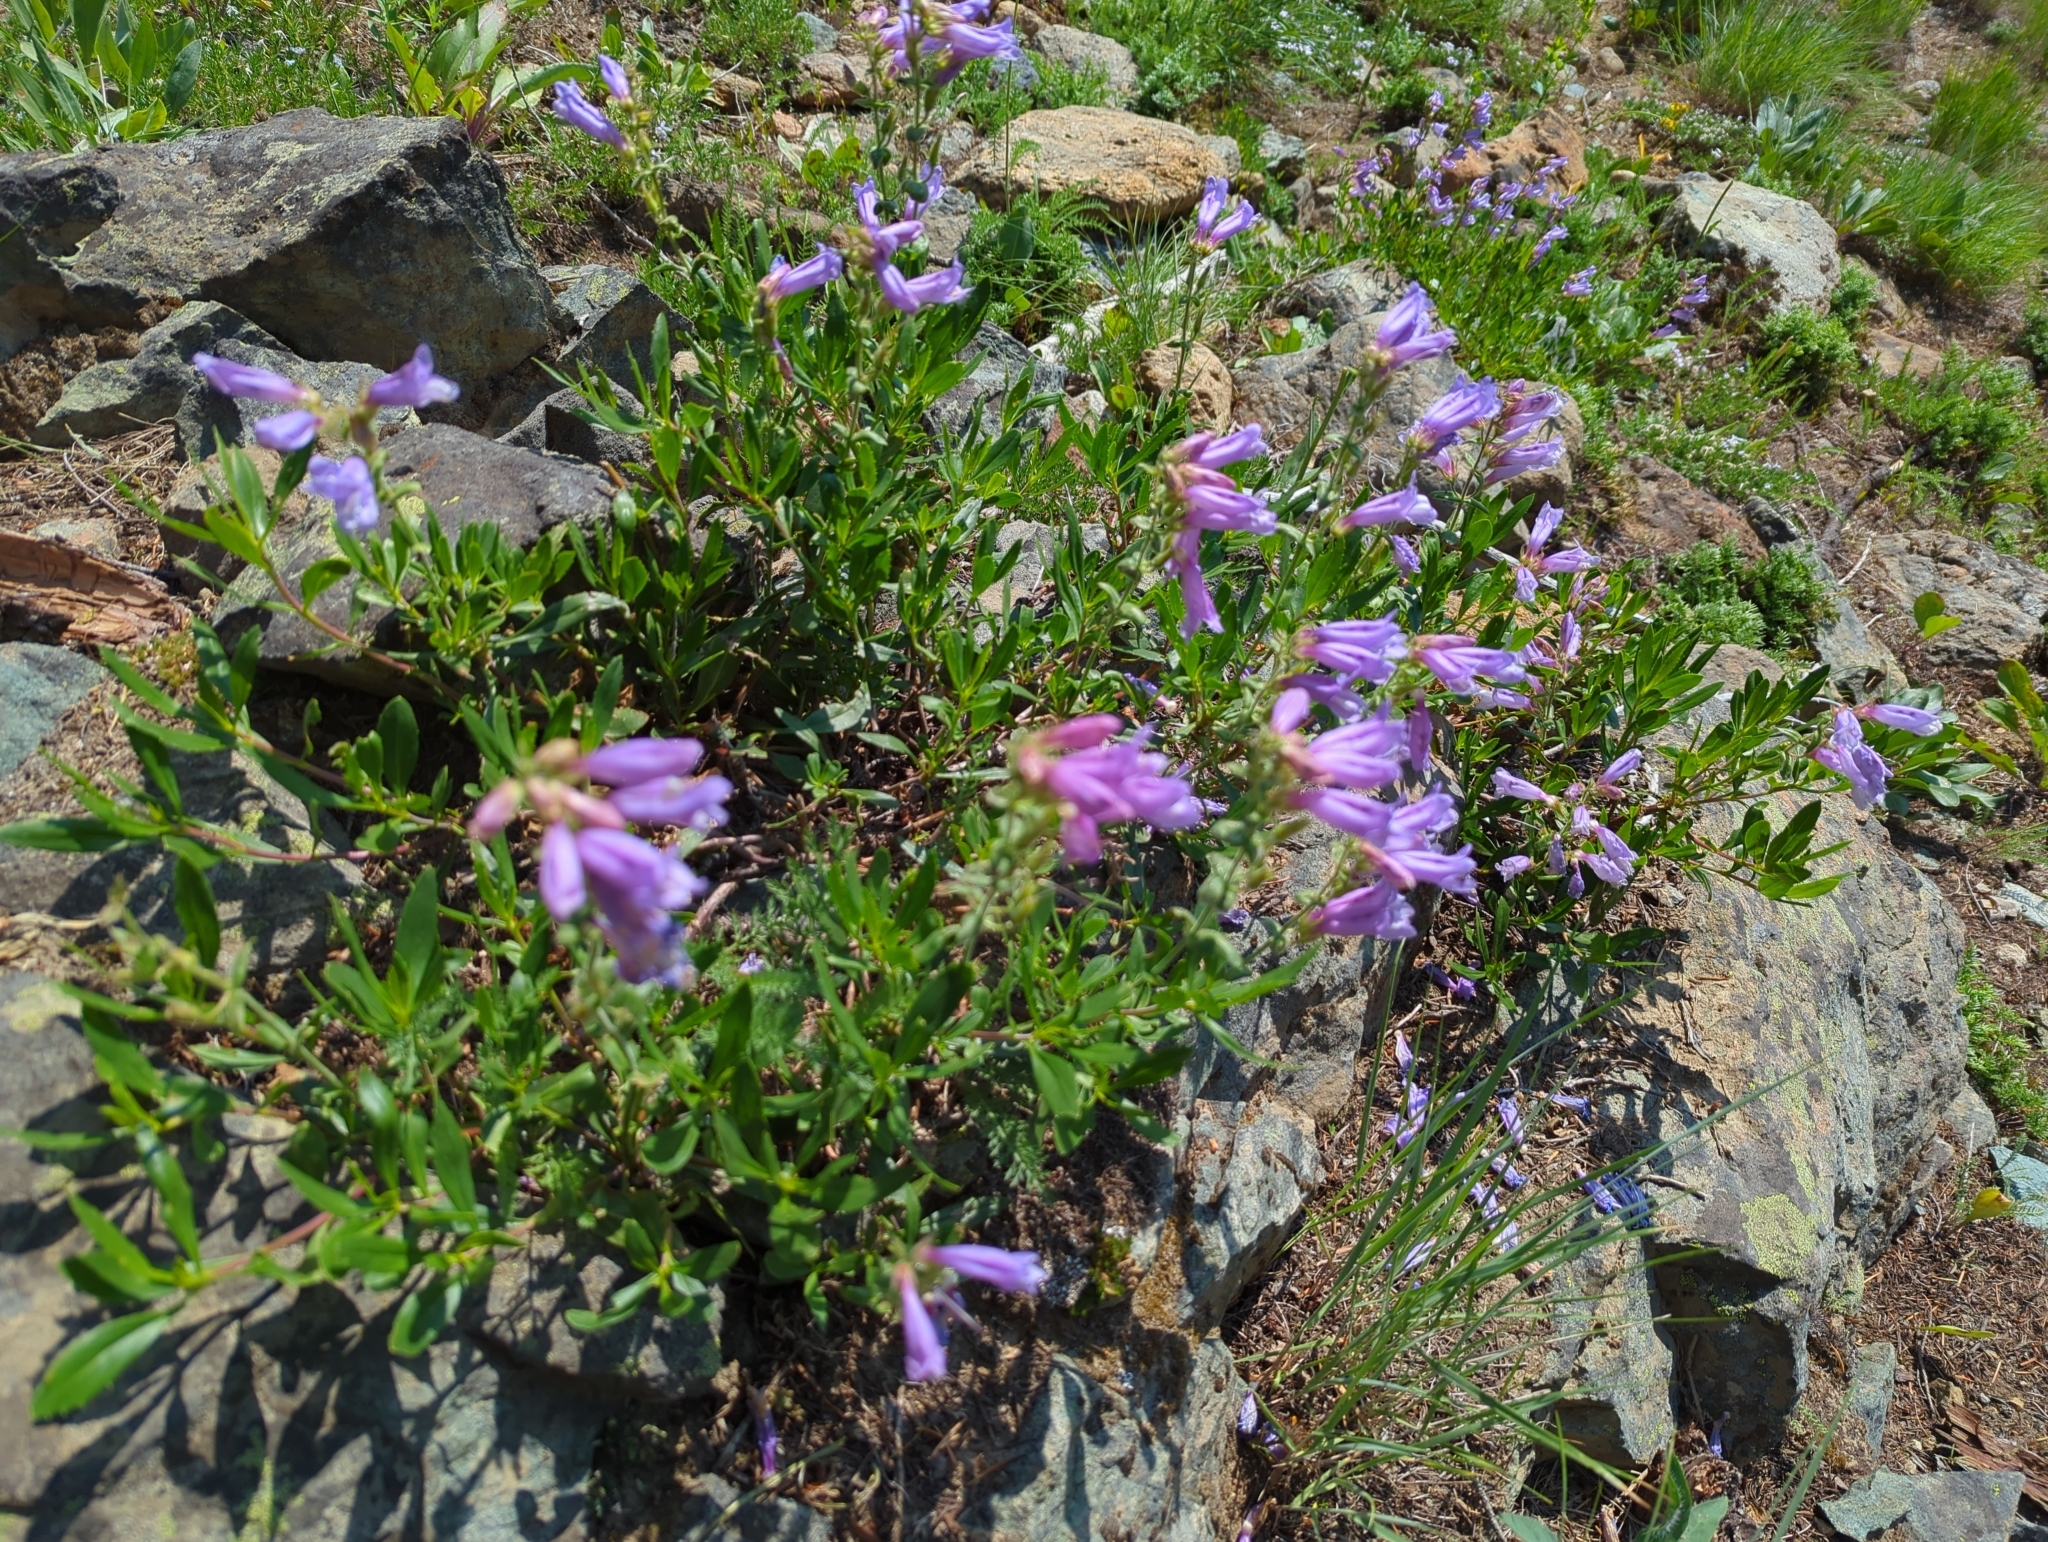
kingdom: Plantae
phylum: Tracheophyta
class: Magnoliopsida
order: Lamiales
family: Plantaginaceae
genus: Penstemon
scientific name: Penstemon fruticosus
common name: Bush penstemon
